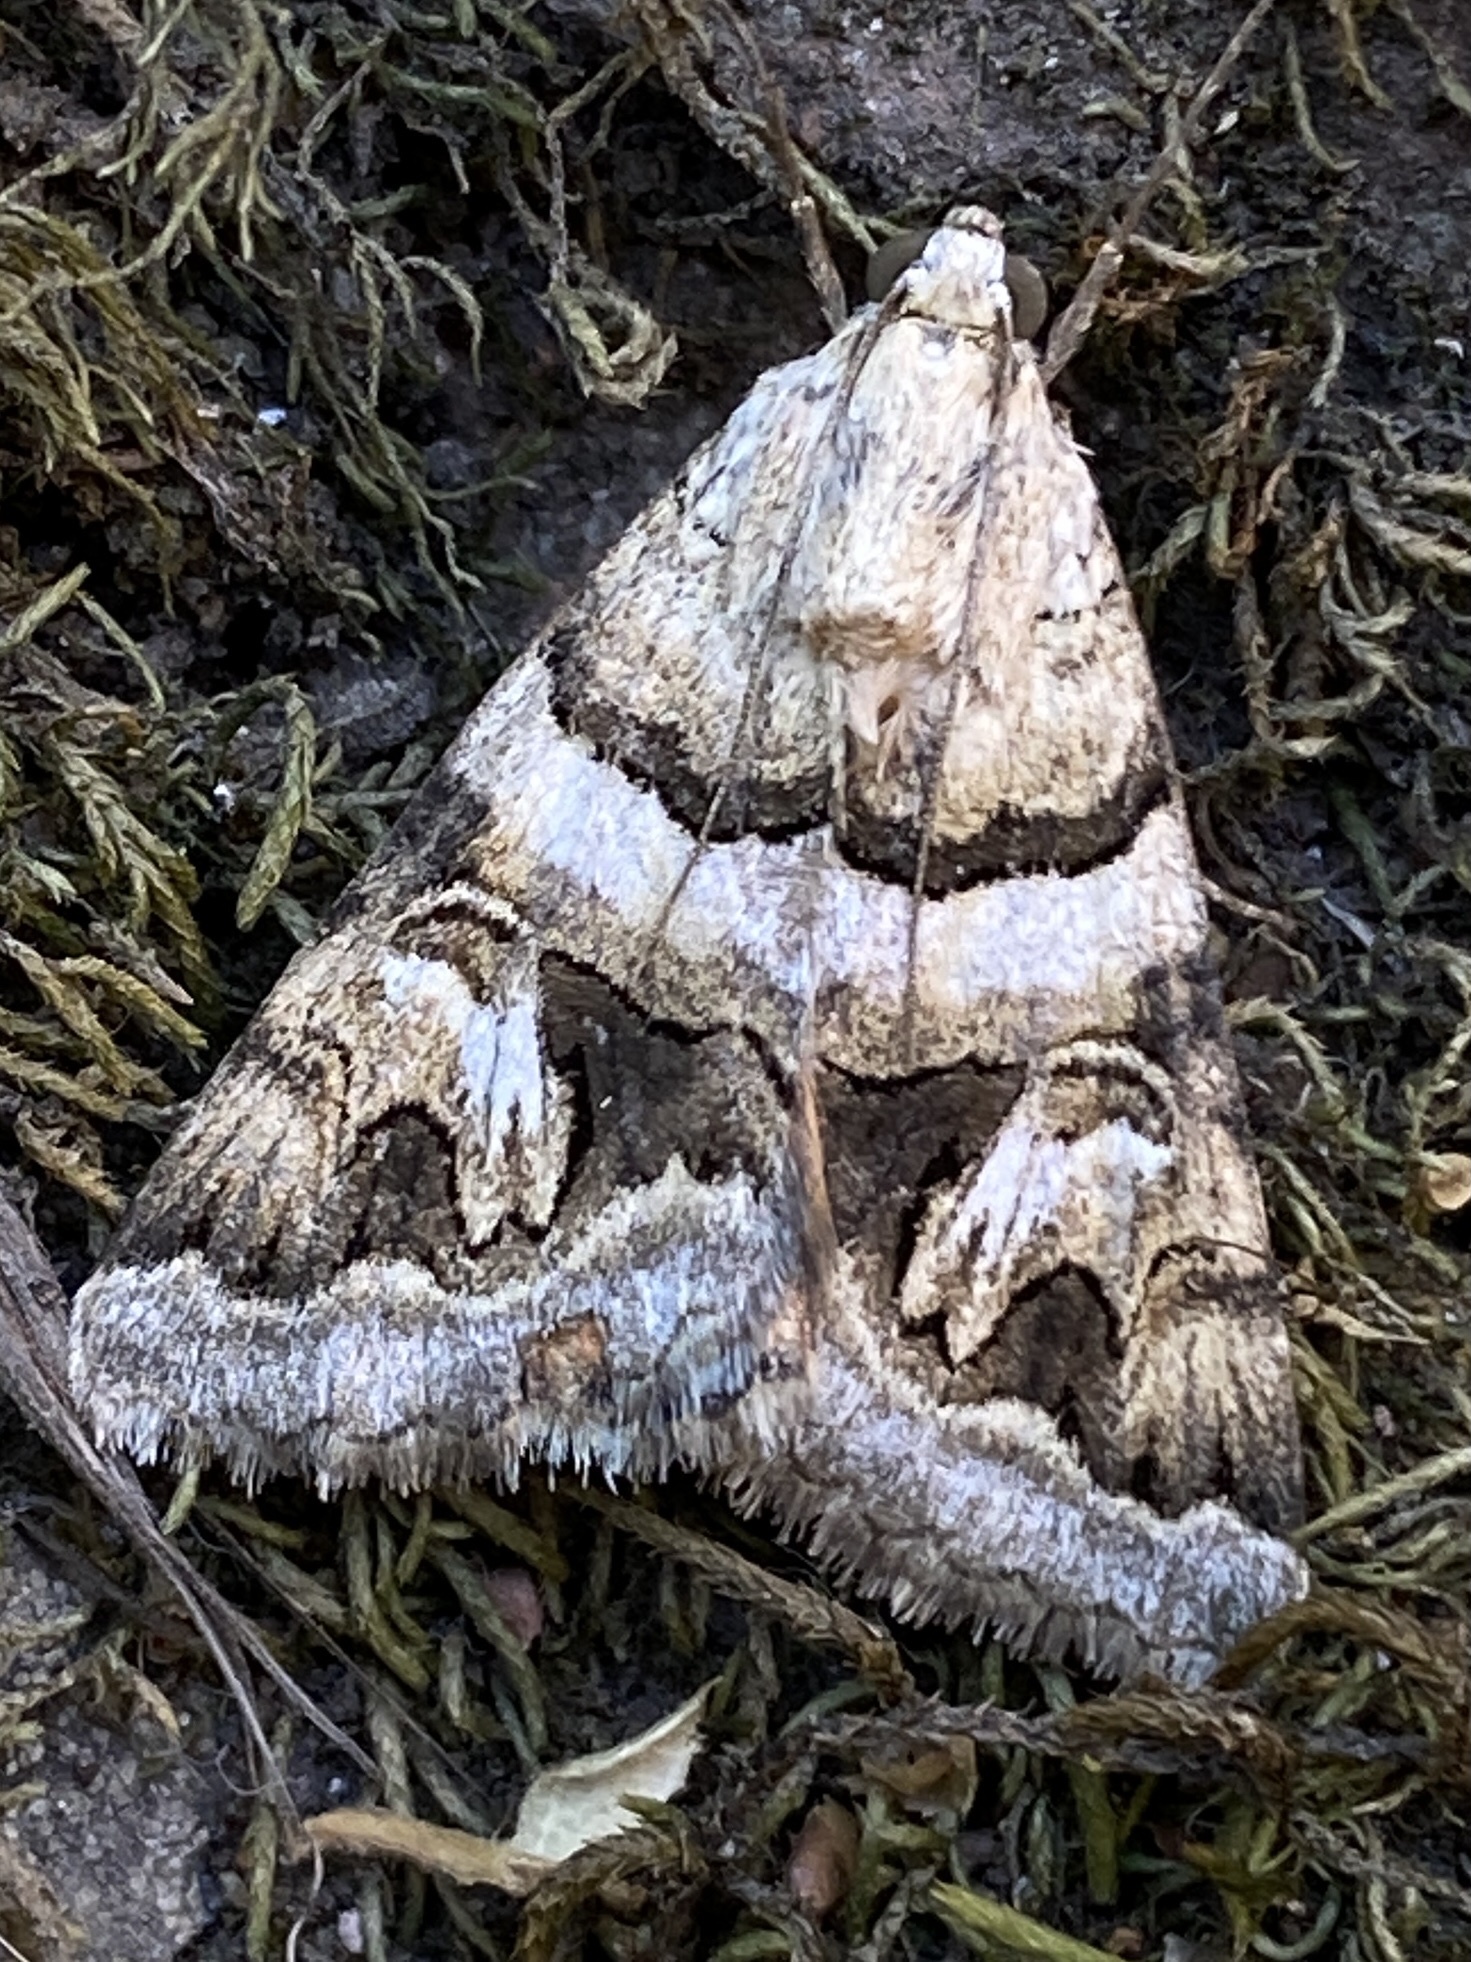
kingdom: Animalia
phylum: Arthropoda
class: Insecta
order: Lepidoptera
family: Erebidae
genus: Drasteria
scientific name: Drasteria howlandii
